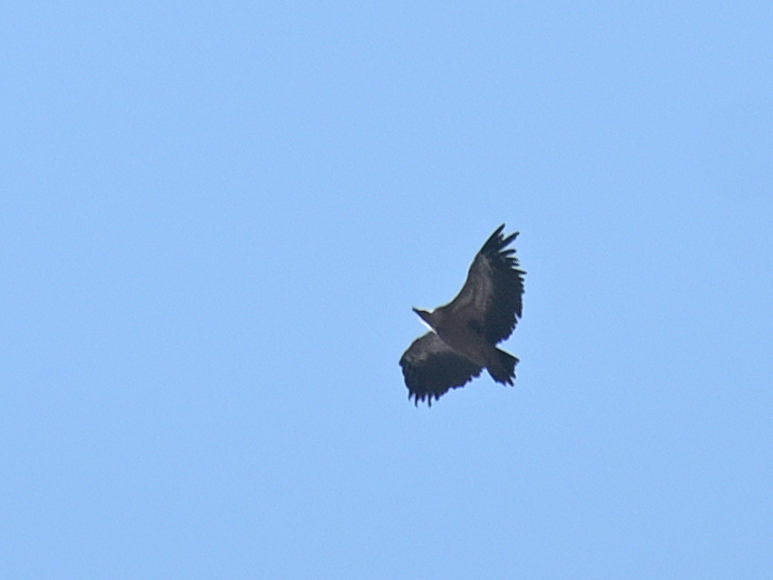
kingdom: Animalia
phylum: Chordata
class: Aves
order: Accipitriformes
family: Accipitridae
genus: Gyps
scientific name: Gyps fulvus
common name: Griffon vulture
